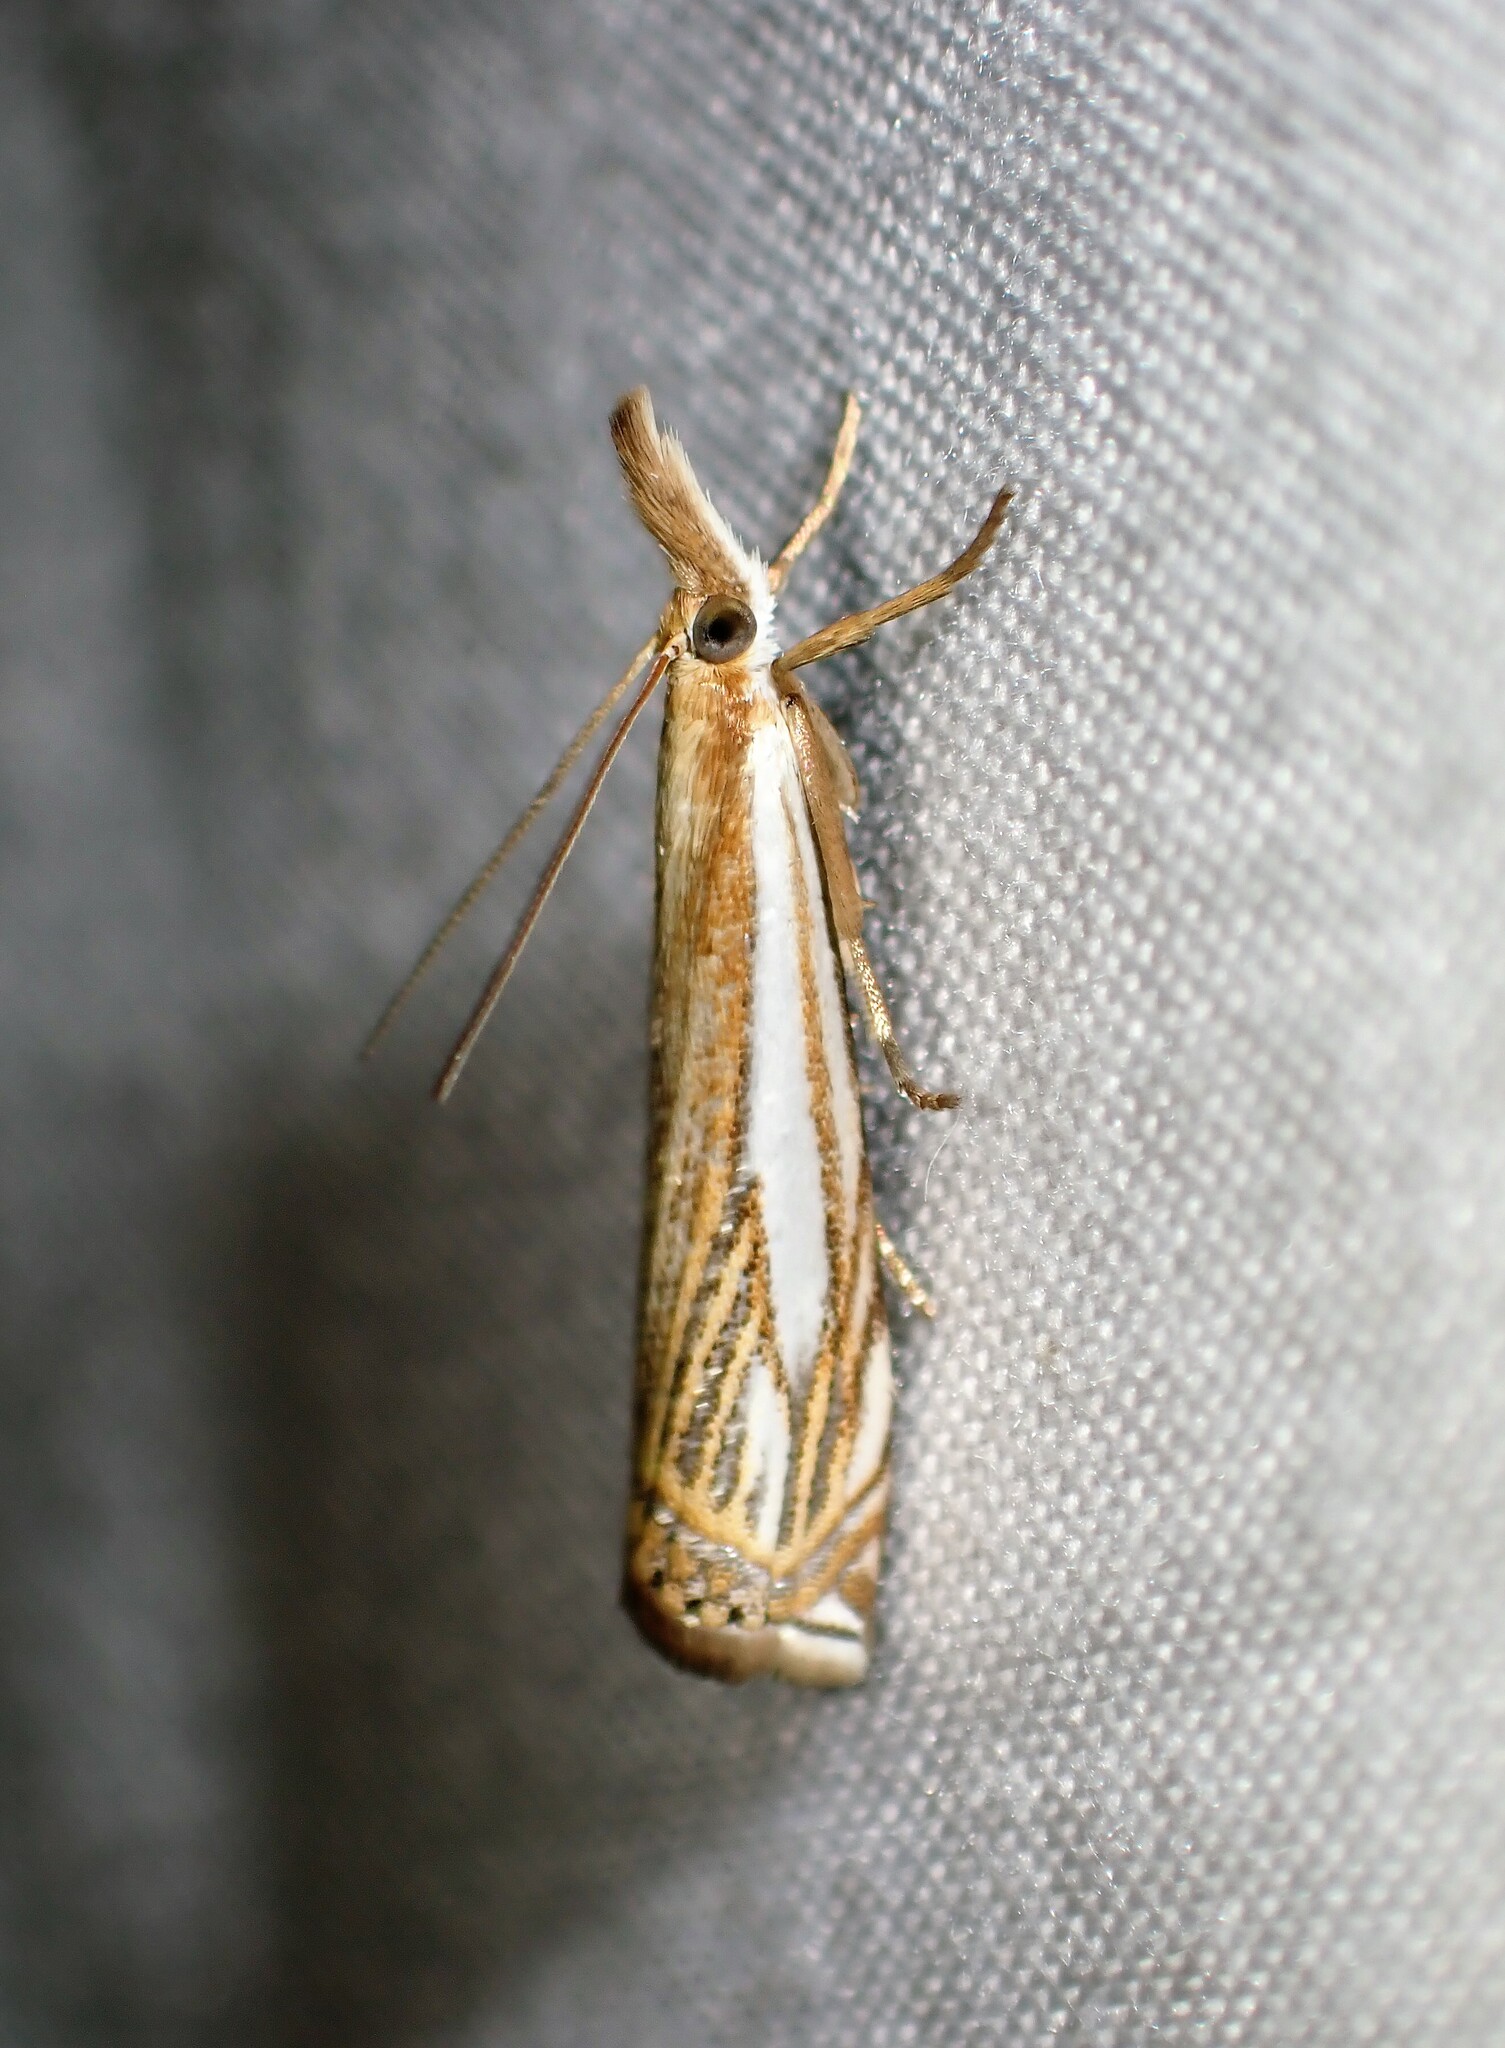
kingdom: Animalia
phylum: Arthropoda
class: Insecta
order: Lepidoptera
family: Crambidae
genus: Crambus
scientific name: Crambus saltuellus
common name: Pasture grass-veneer
